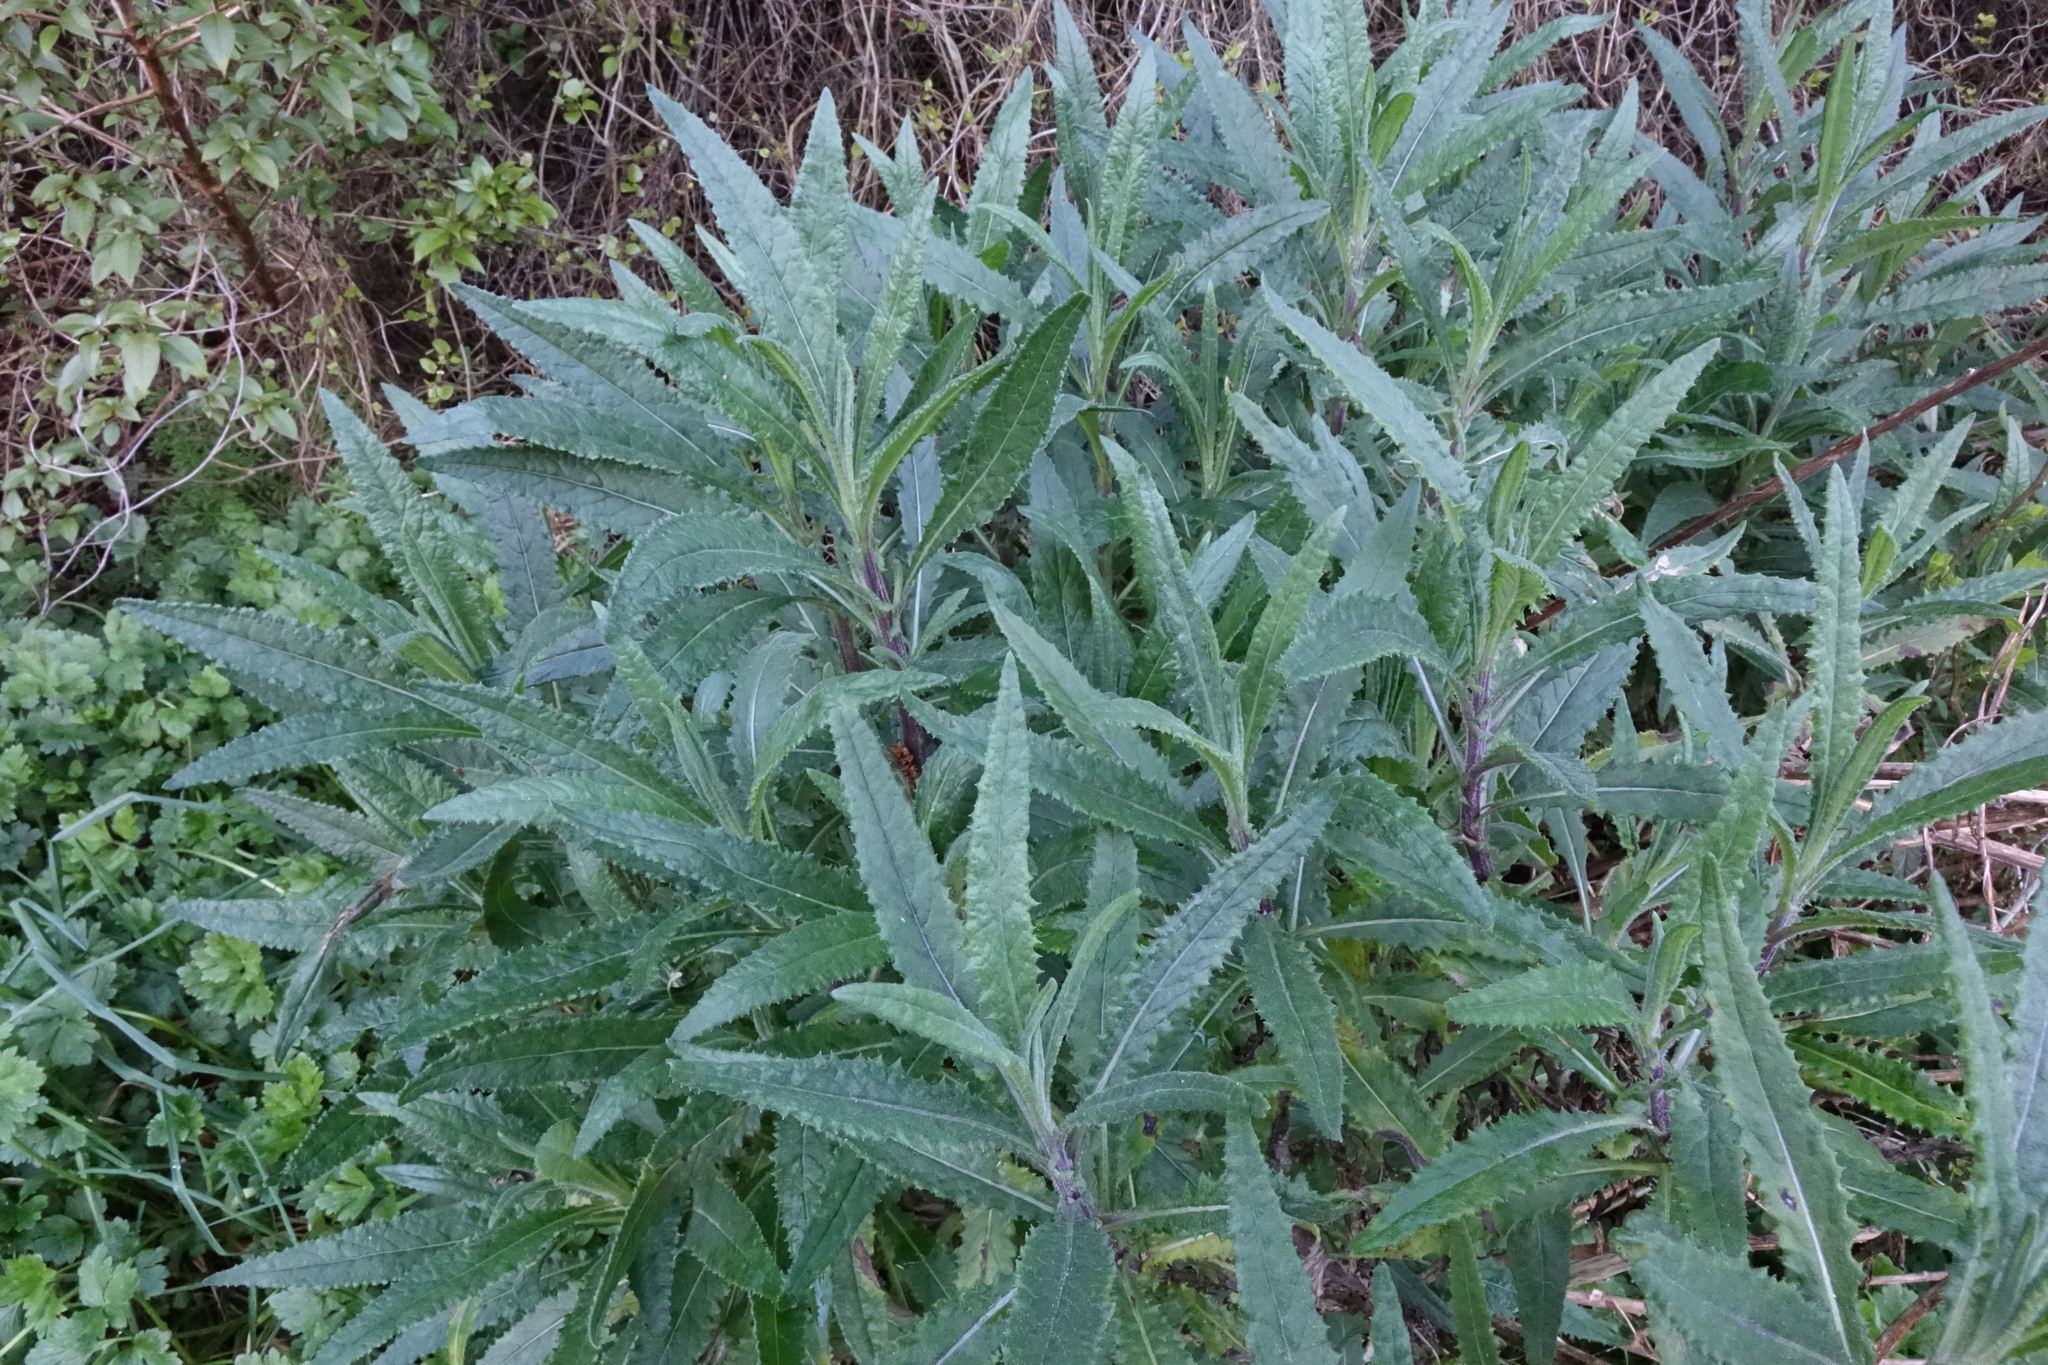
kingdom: Plantae
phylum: Tracheophyta
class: Magnoliopsida
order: Asterales
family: Asteraceae
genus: Senecio
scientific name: Senecio minimus
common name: Toothed fireweed
